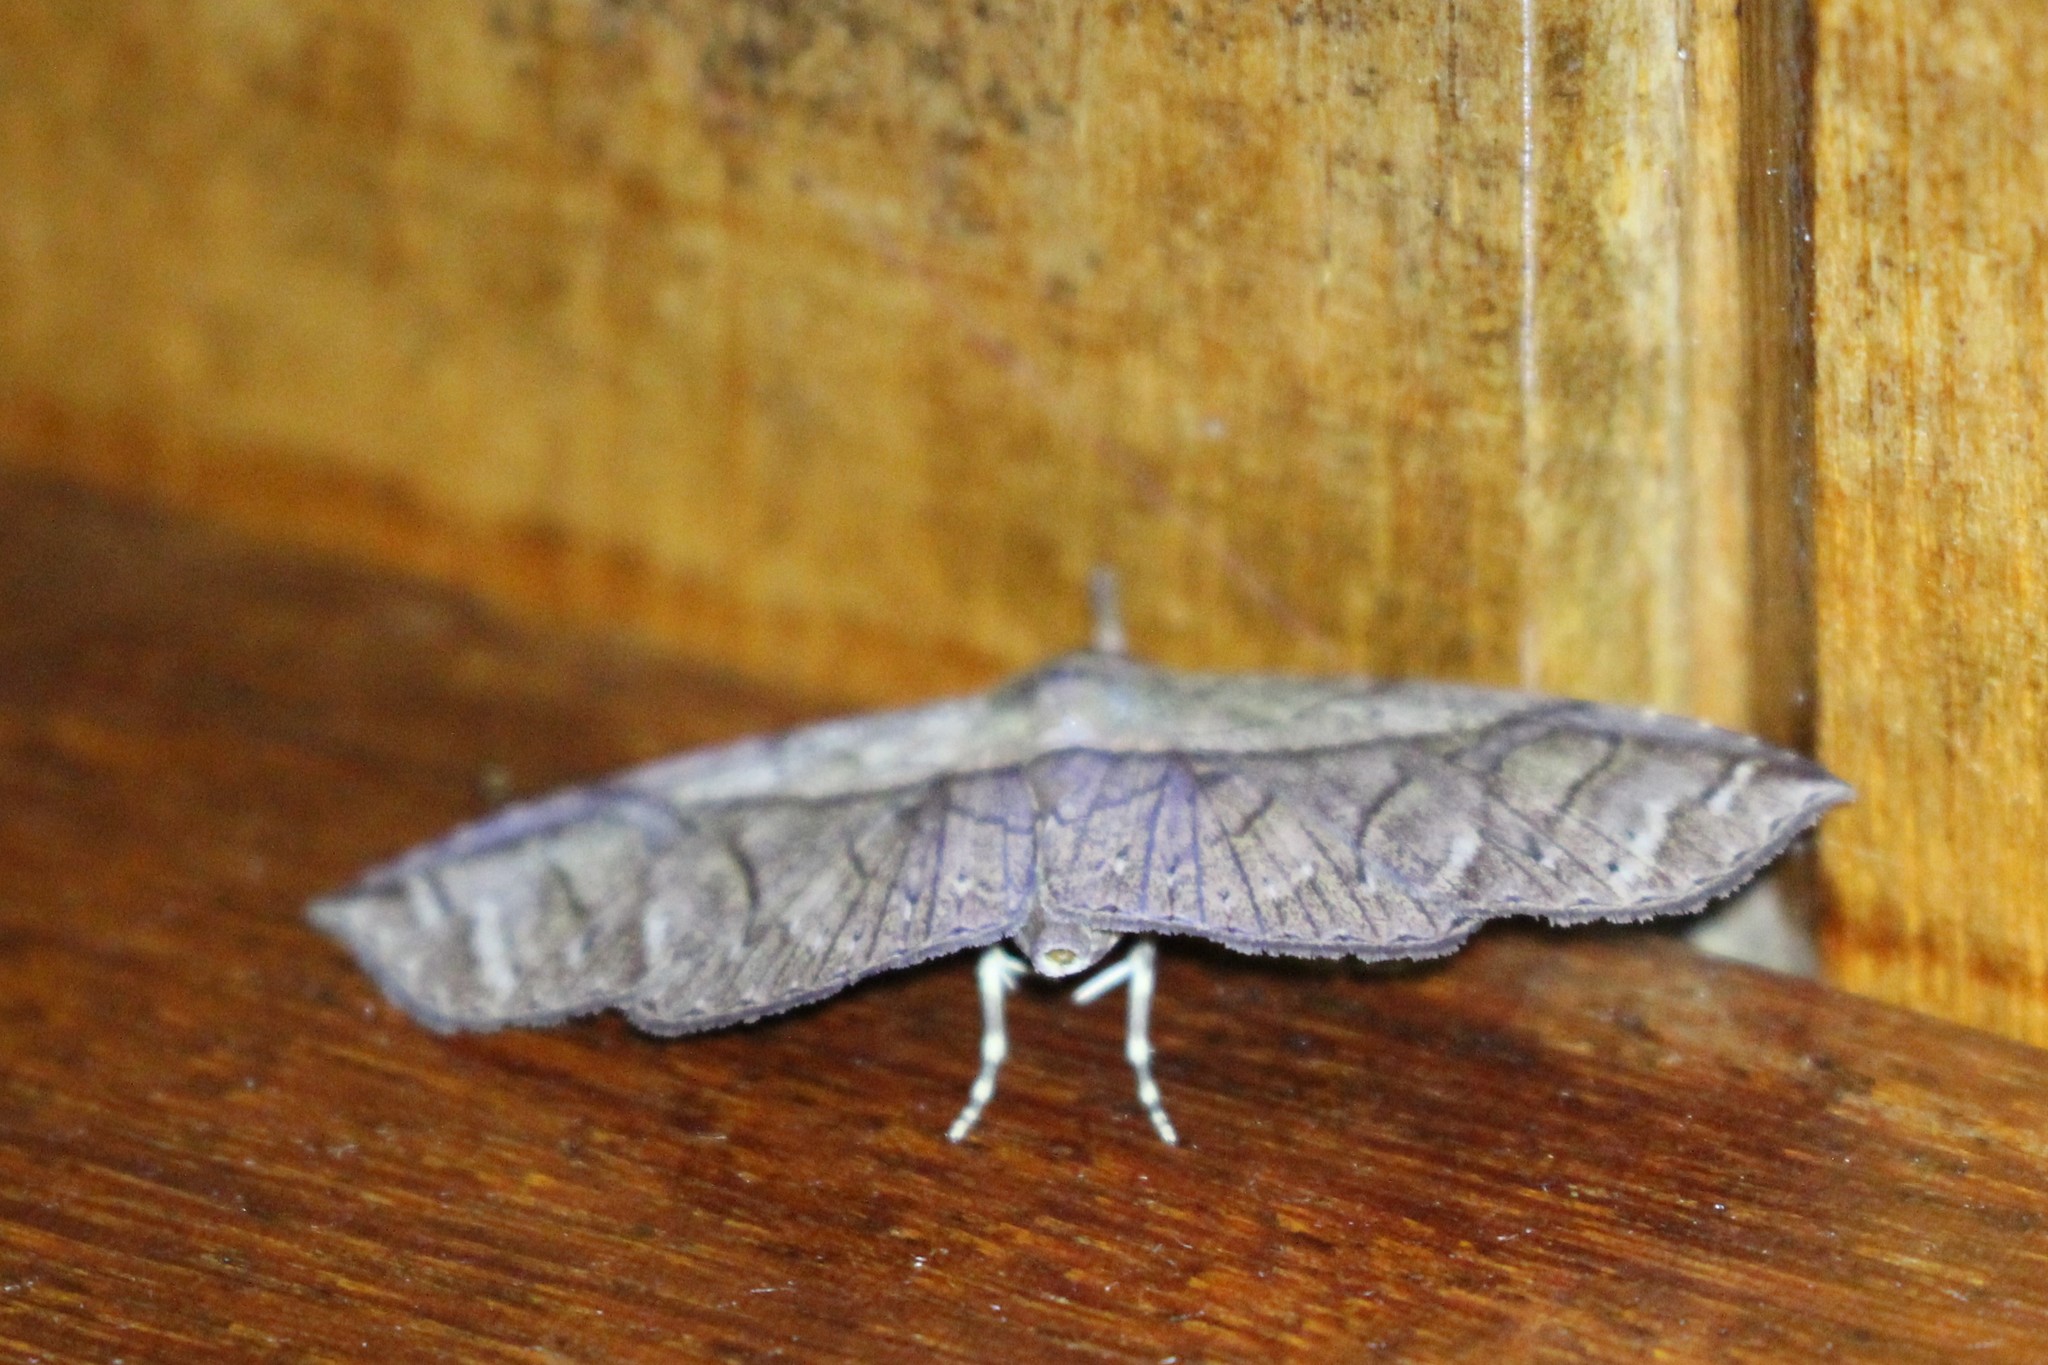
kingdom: Animalia
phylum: Arthropoda
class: Insecta
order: Lepidoptera
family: Erebidae
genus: Gigia
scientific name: Gigia obliqua
